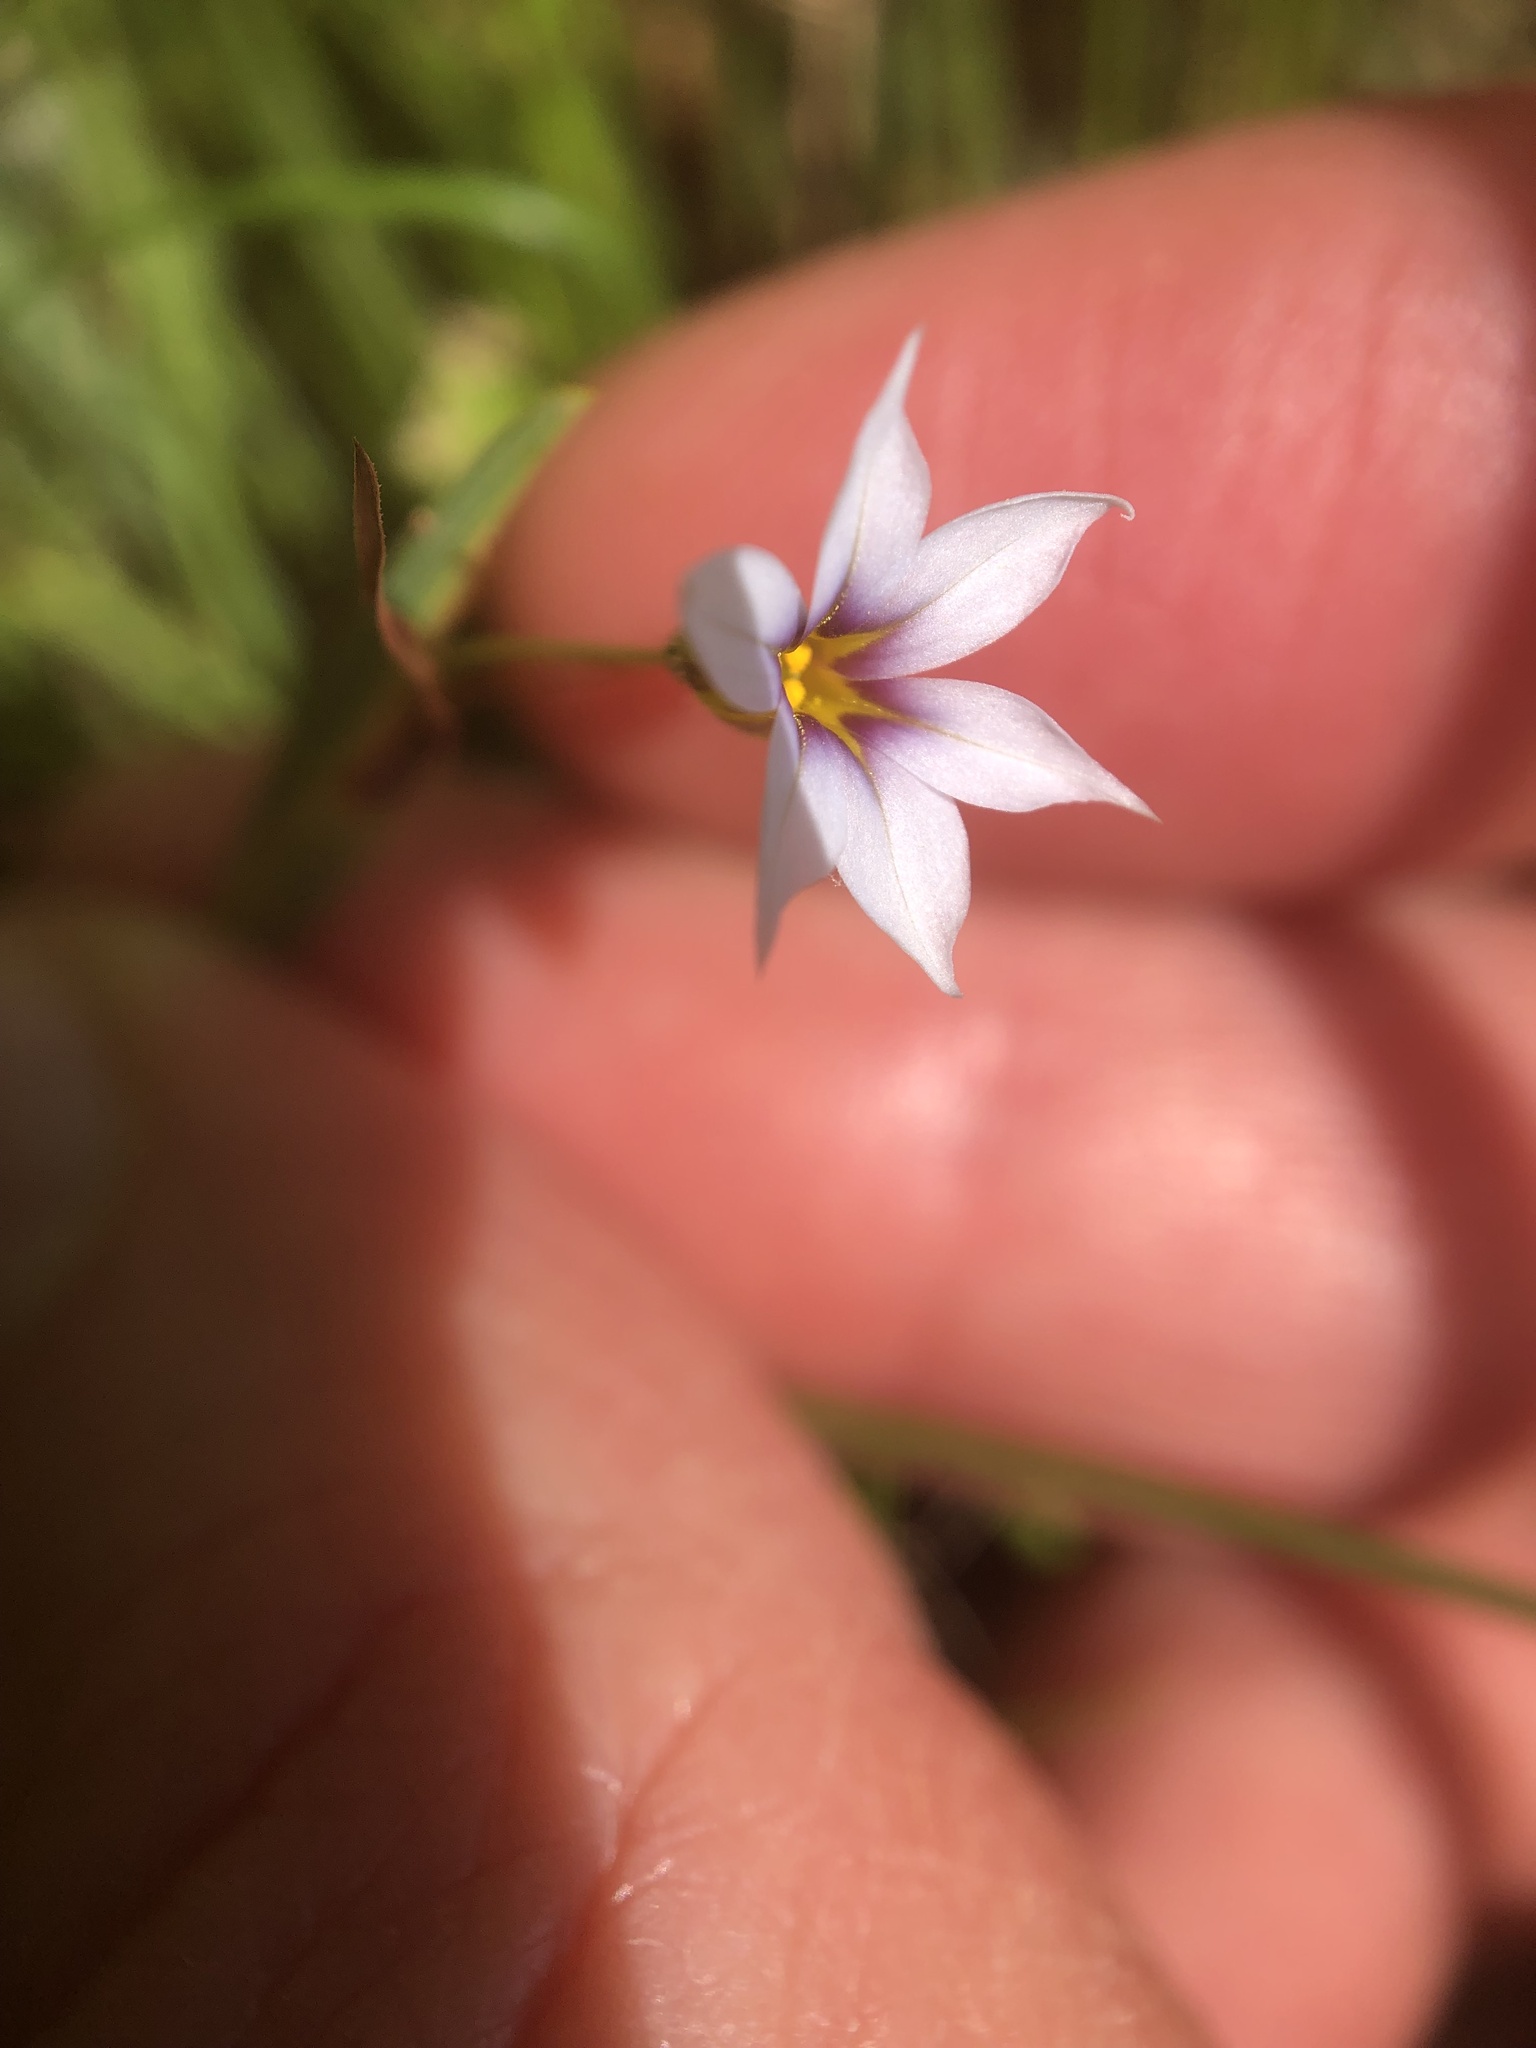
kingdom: Plantae
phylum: Tracheophyta
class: Liliopsida
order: Asparagales
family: Iridaceae
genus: Sisyrinchium
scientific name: Sisyrinchium micranthum
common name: Bermuda pigroot
